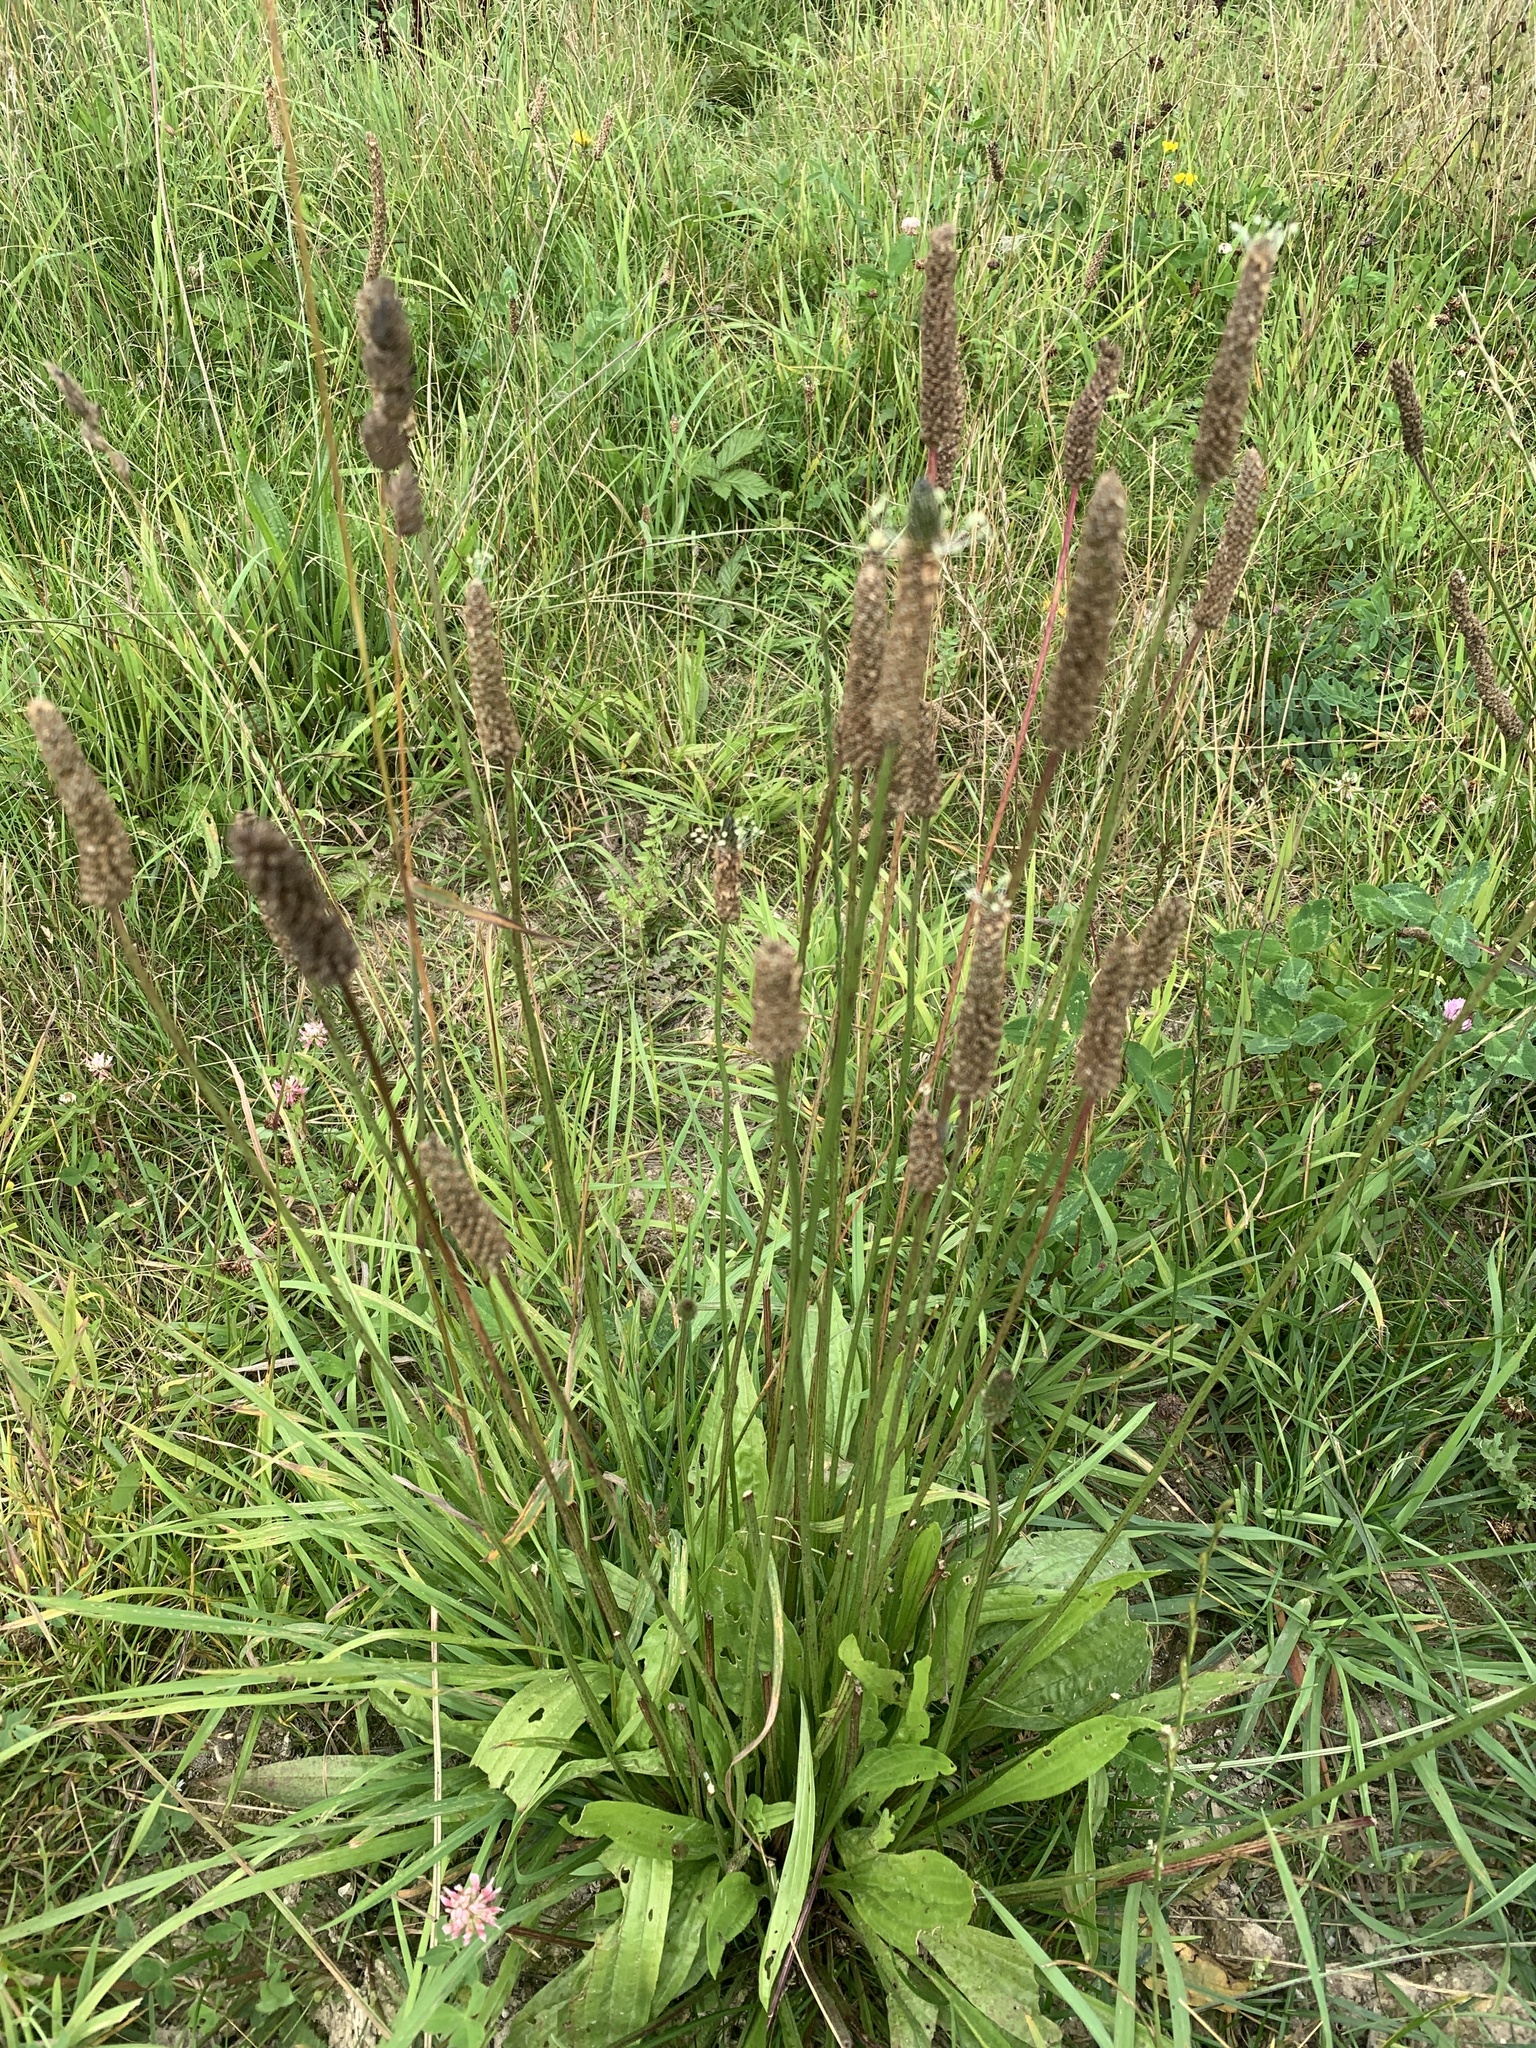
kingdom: Plantae
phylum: Tracheophyta
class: Magnoliopsida
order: Lamiales
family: Plantaginaceae
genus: Plantago
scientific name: Plantago lanceolata
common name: Ribwort plantain
